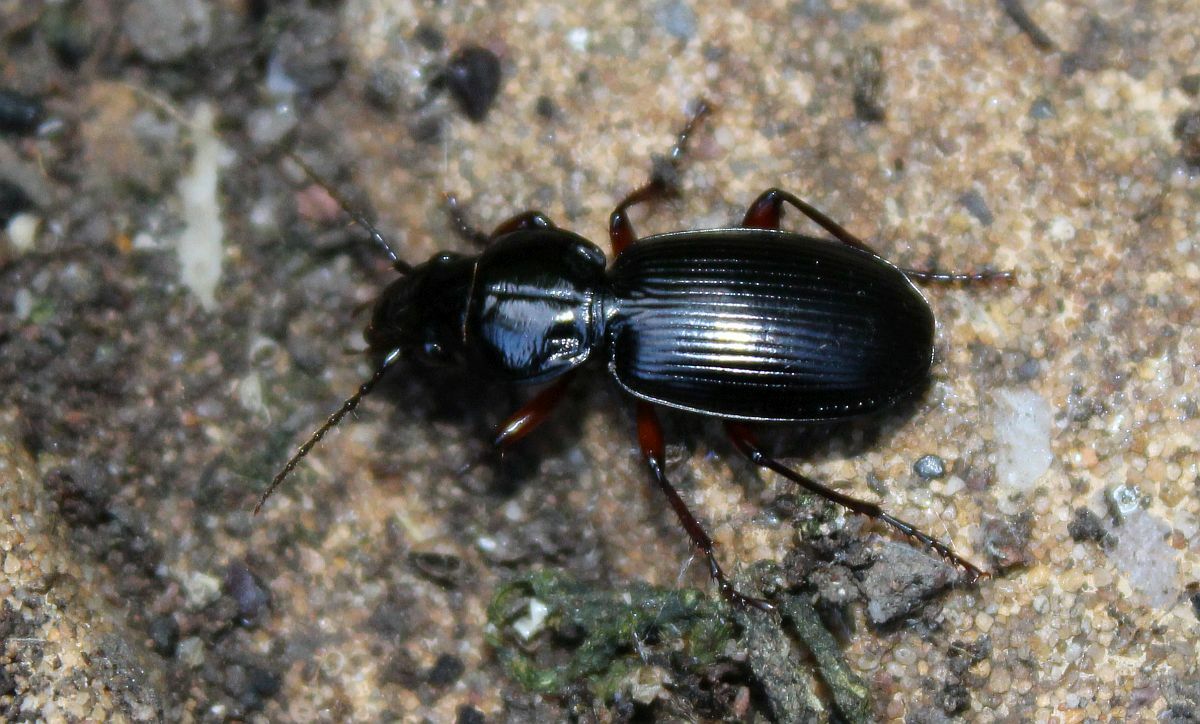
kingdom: Animalia
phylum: Arthropoda
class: Insecta
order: Coleoptera
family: Carabidae
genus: Pterostichus
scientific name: Pterostichus madidus
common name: Black clock
